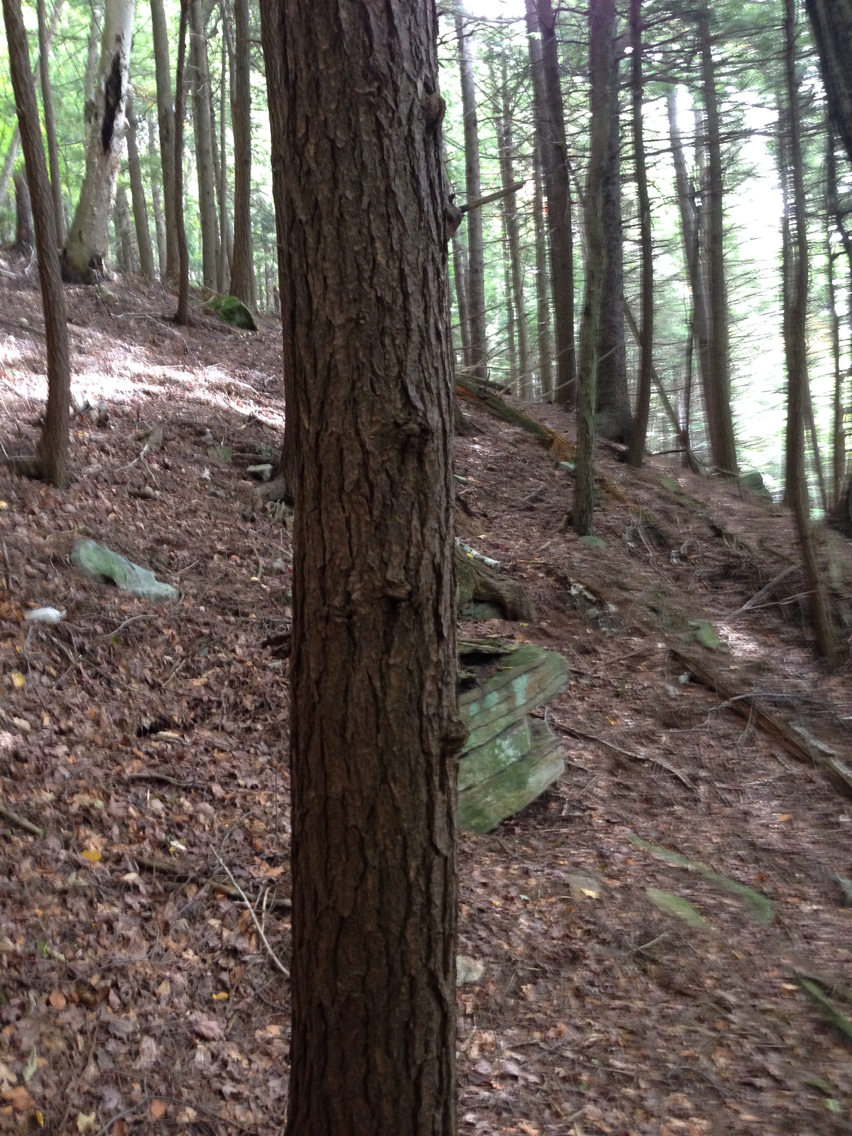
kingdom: Plantae
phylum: Tracheophyta
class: Pinopsida
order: Pinales
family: Pinaceae
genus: Tsuga
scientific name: Tsuga canadensis
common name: Eastern hemlock
